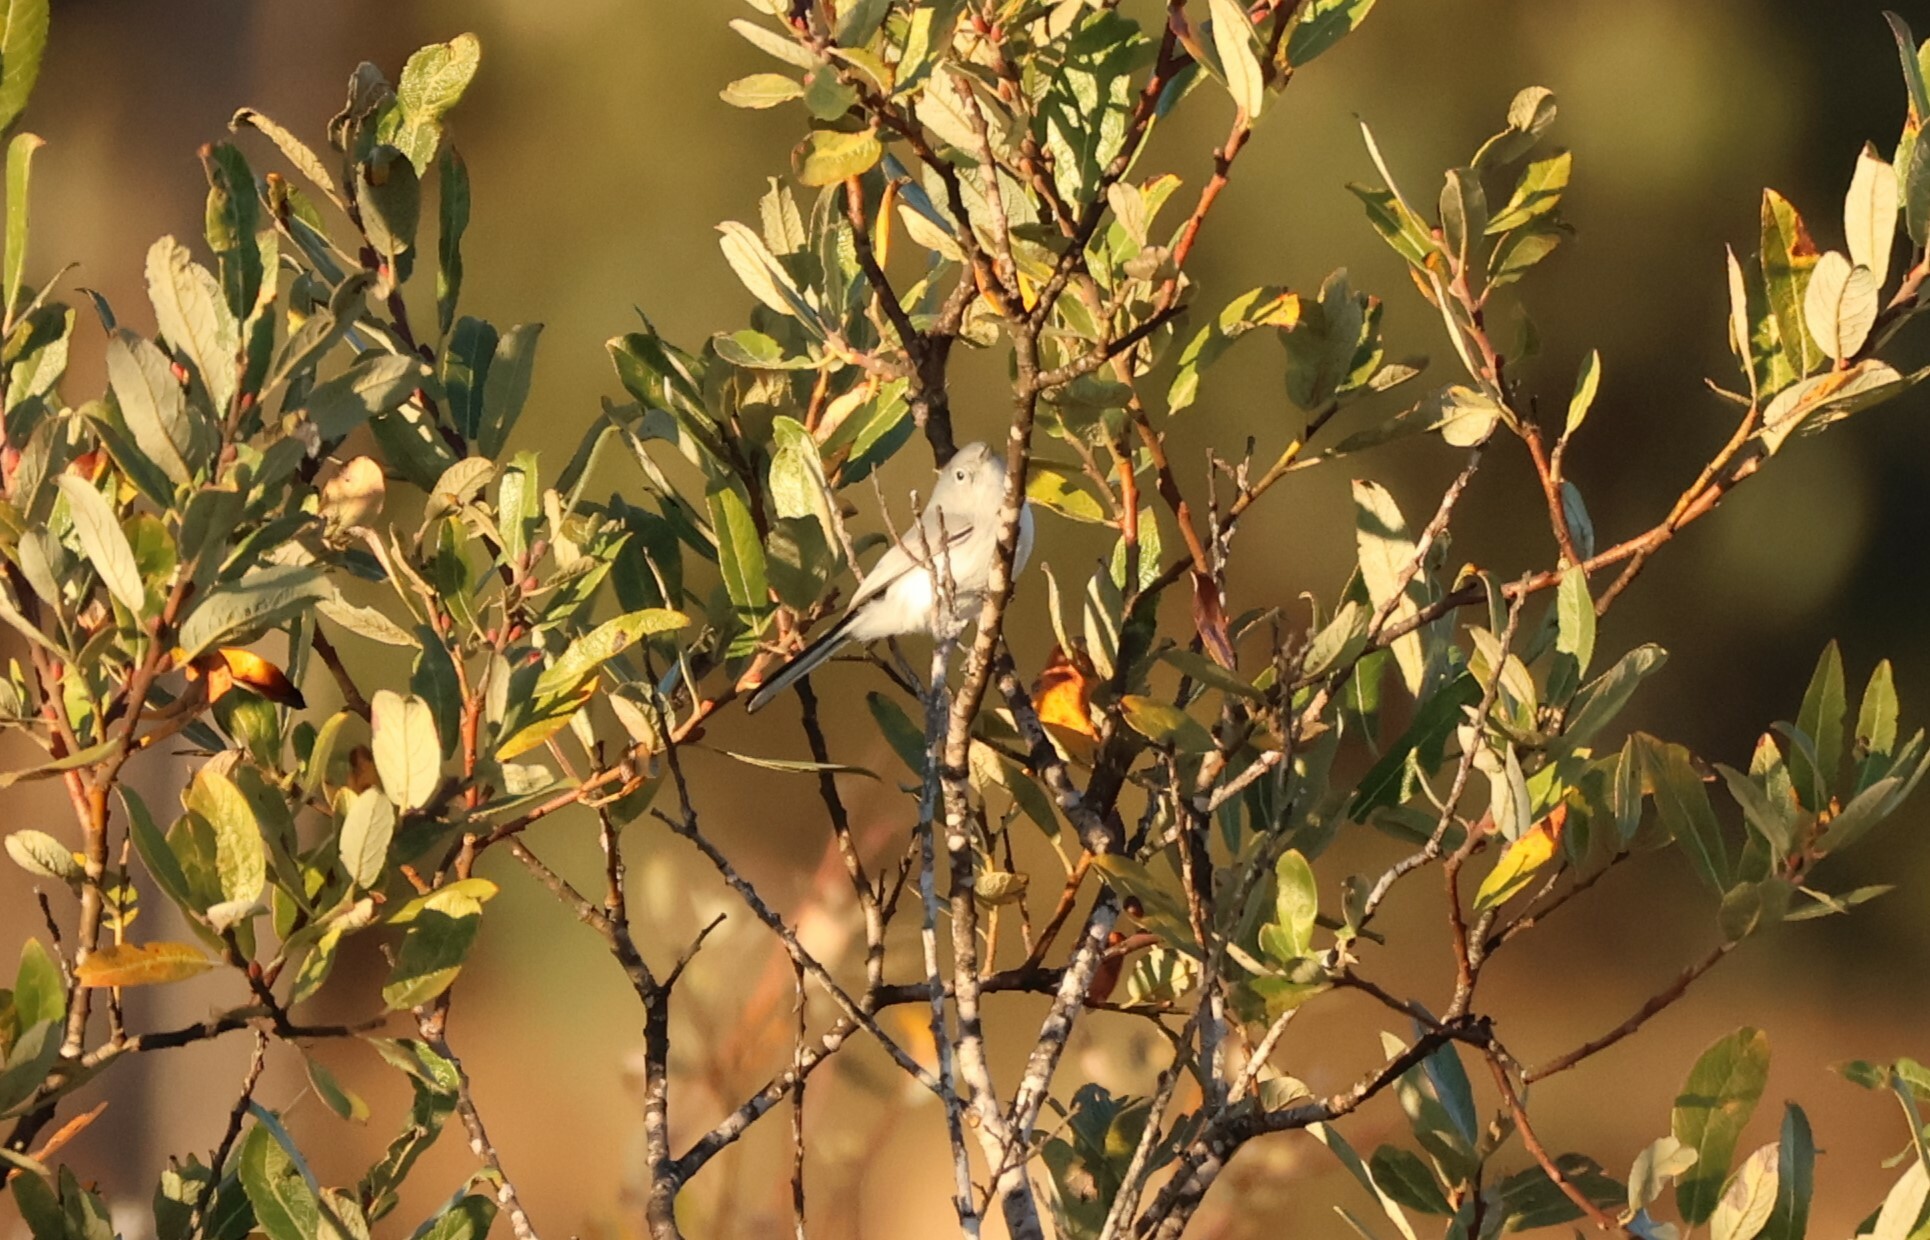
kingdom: Animalia
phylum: Chordata
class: Aves
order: Passeriformes
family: Polioptilidae
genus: Polioptila
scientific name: Polioptila caerulea
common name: Blue-gray gnatcatcher
